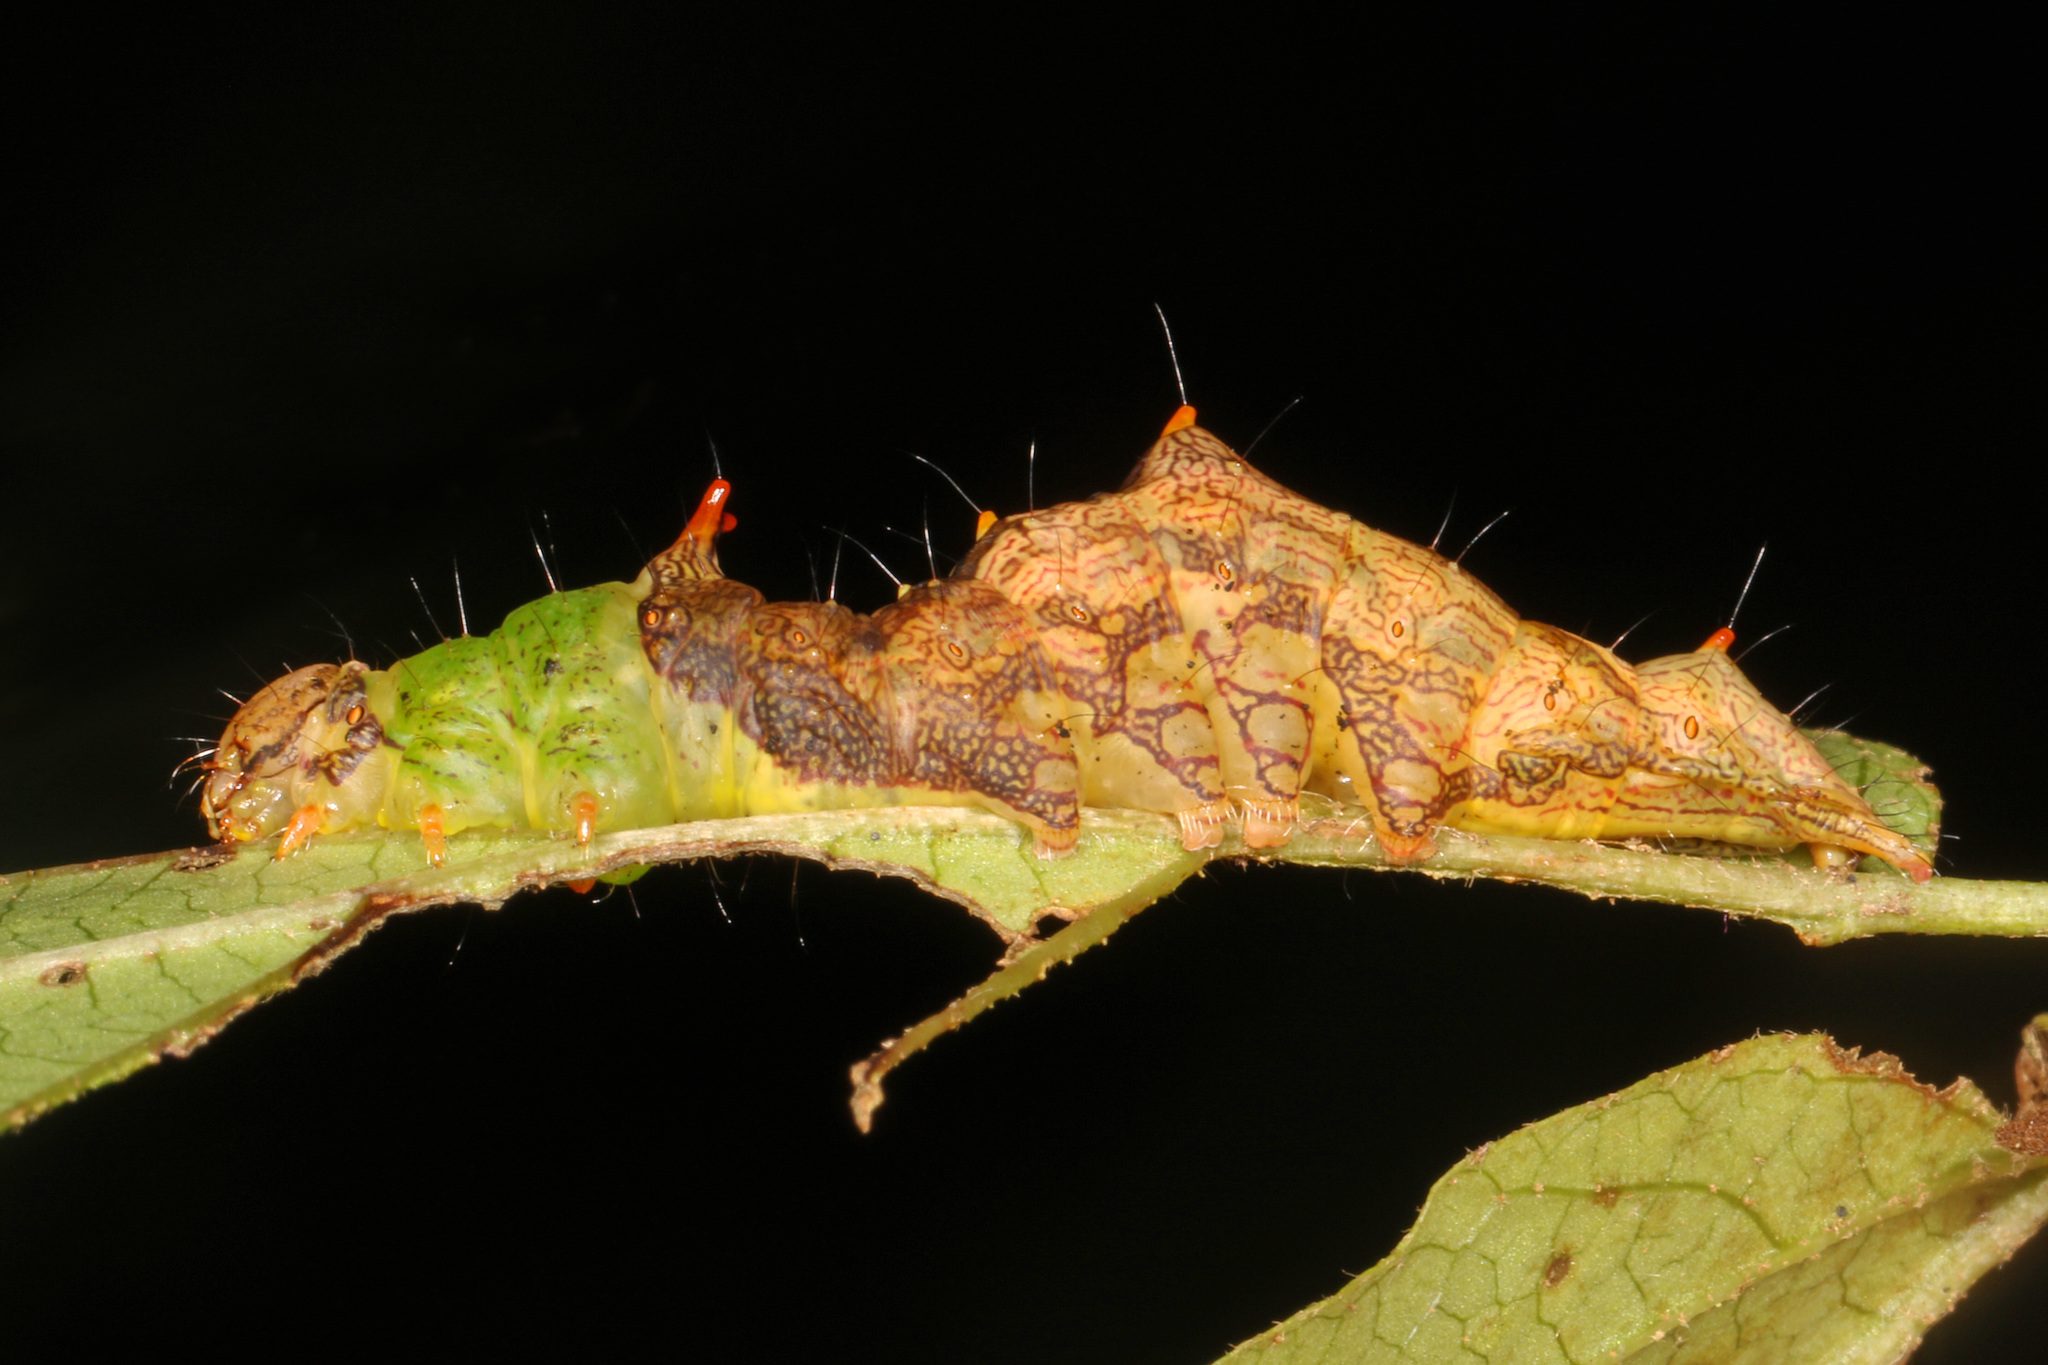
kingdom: Animalia
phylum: Arthropoda
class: Insecta
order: Lepidoptera
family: Notodontidae
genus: Schizura
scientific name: Schizura ipomaeae
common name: Morning-glory prominent
